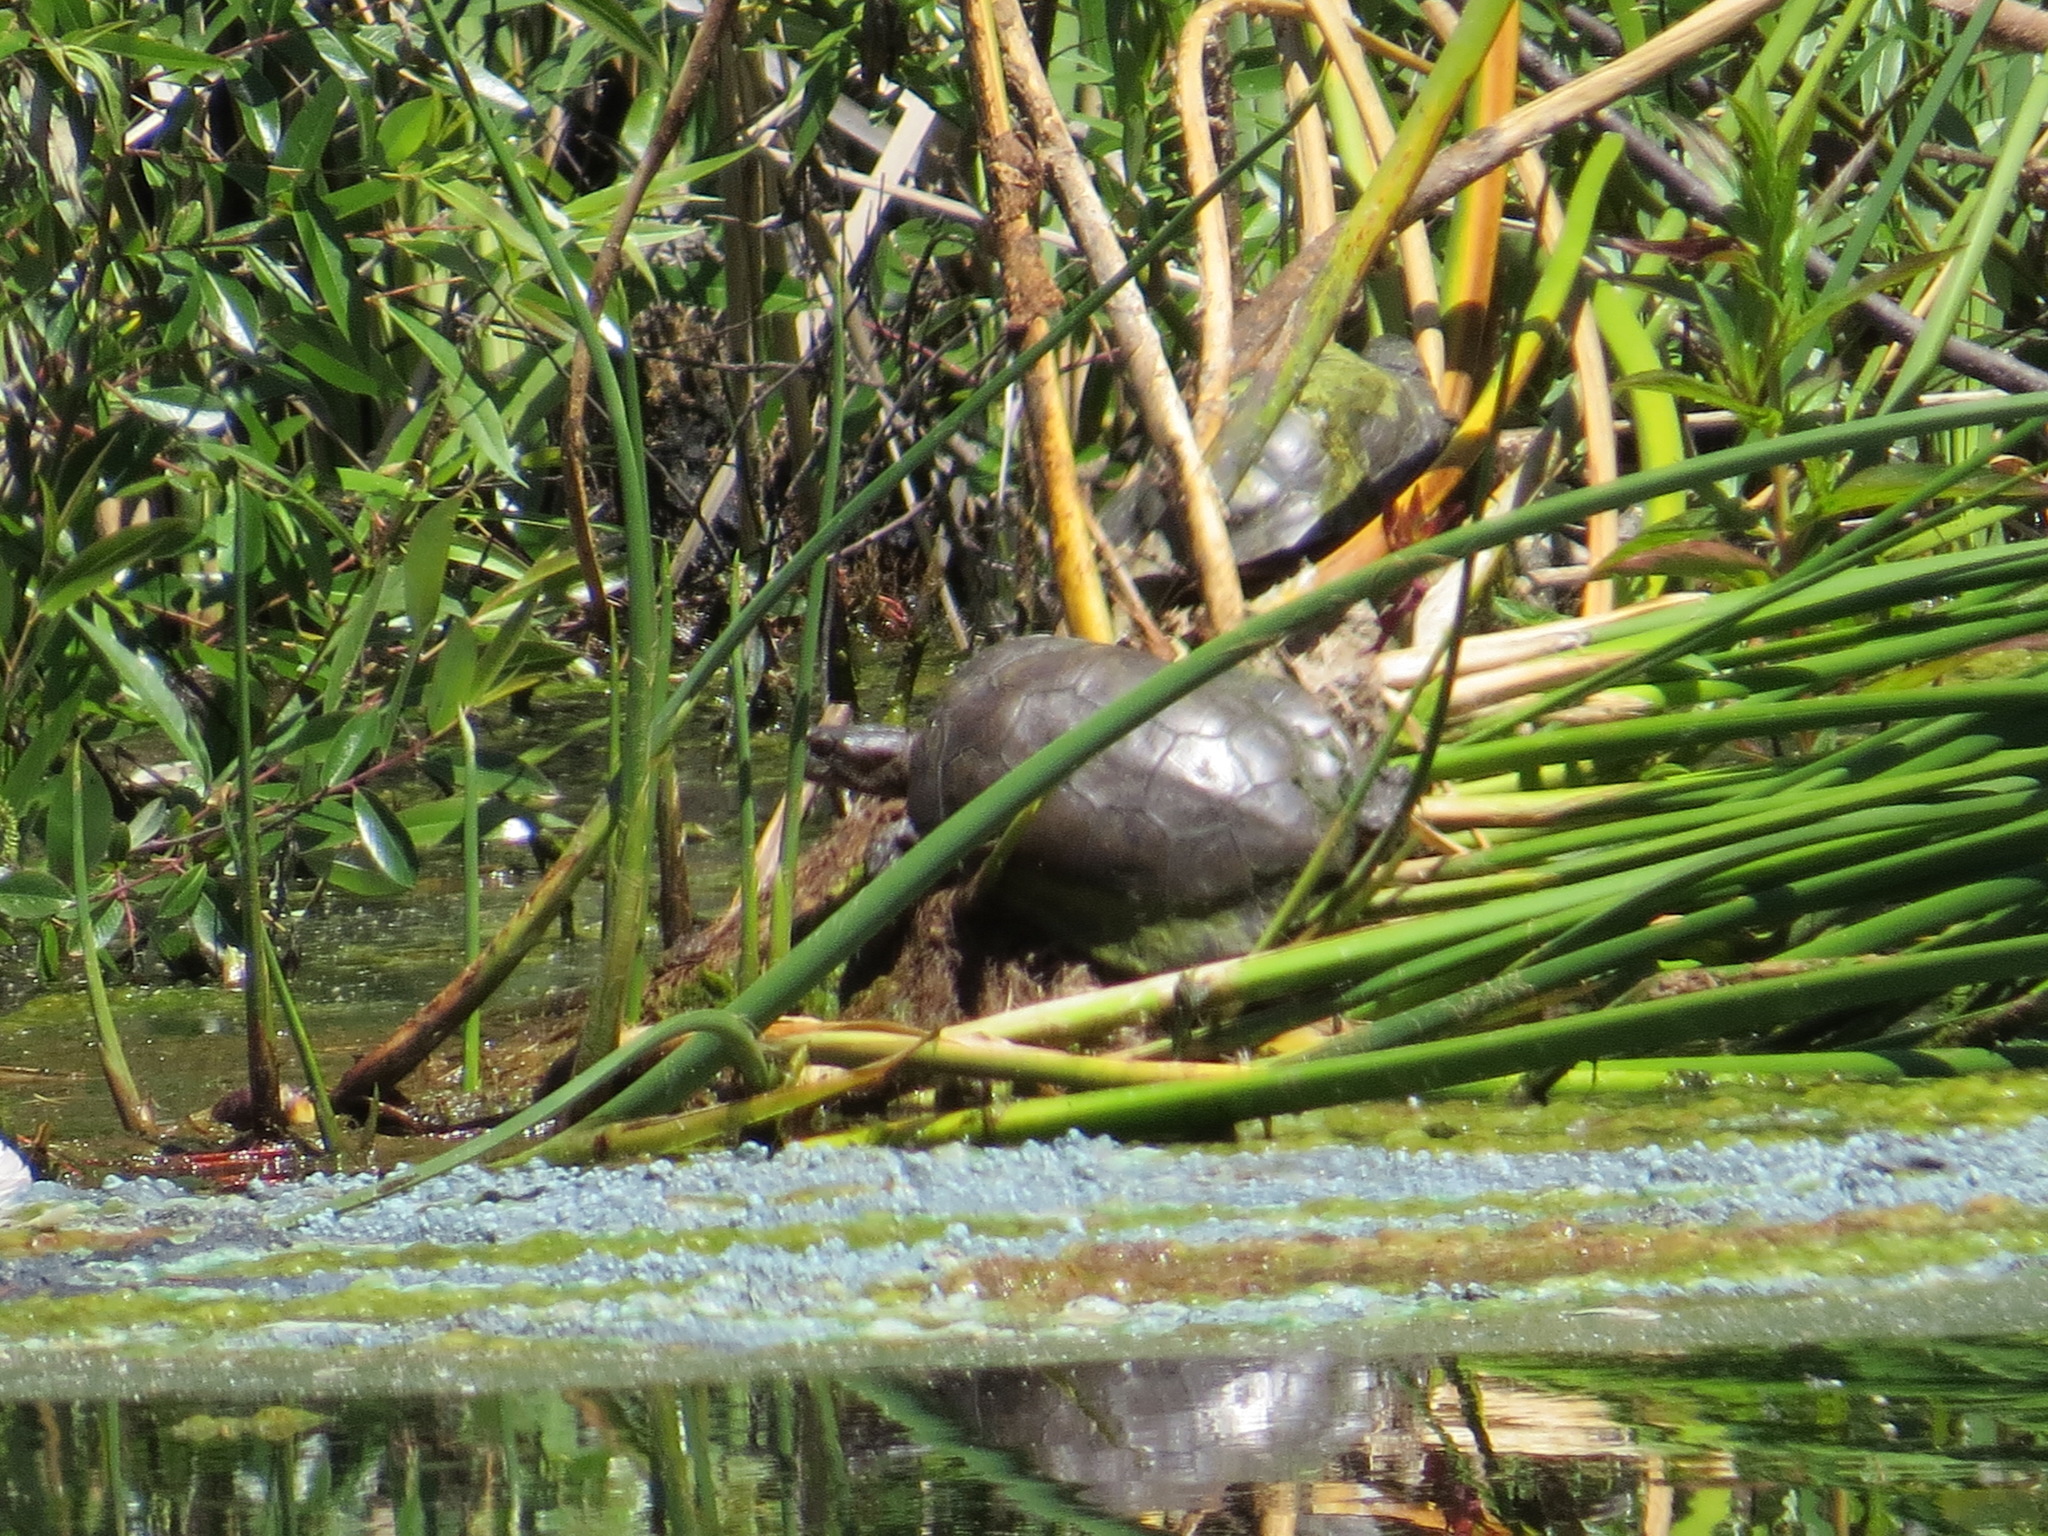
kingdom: Animalia
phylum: Chordata
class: Testudines
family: Emydidae
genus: Actinemys
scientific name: Actinemys marmorata
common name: Western pond turtle
